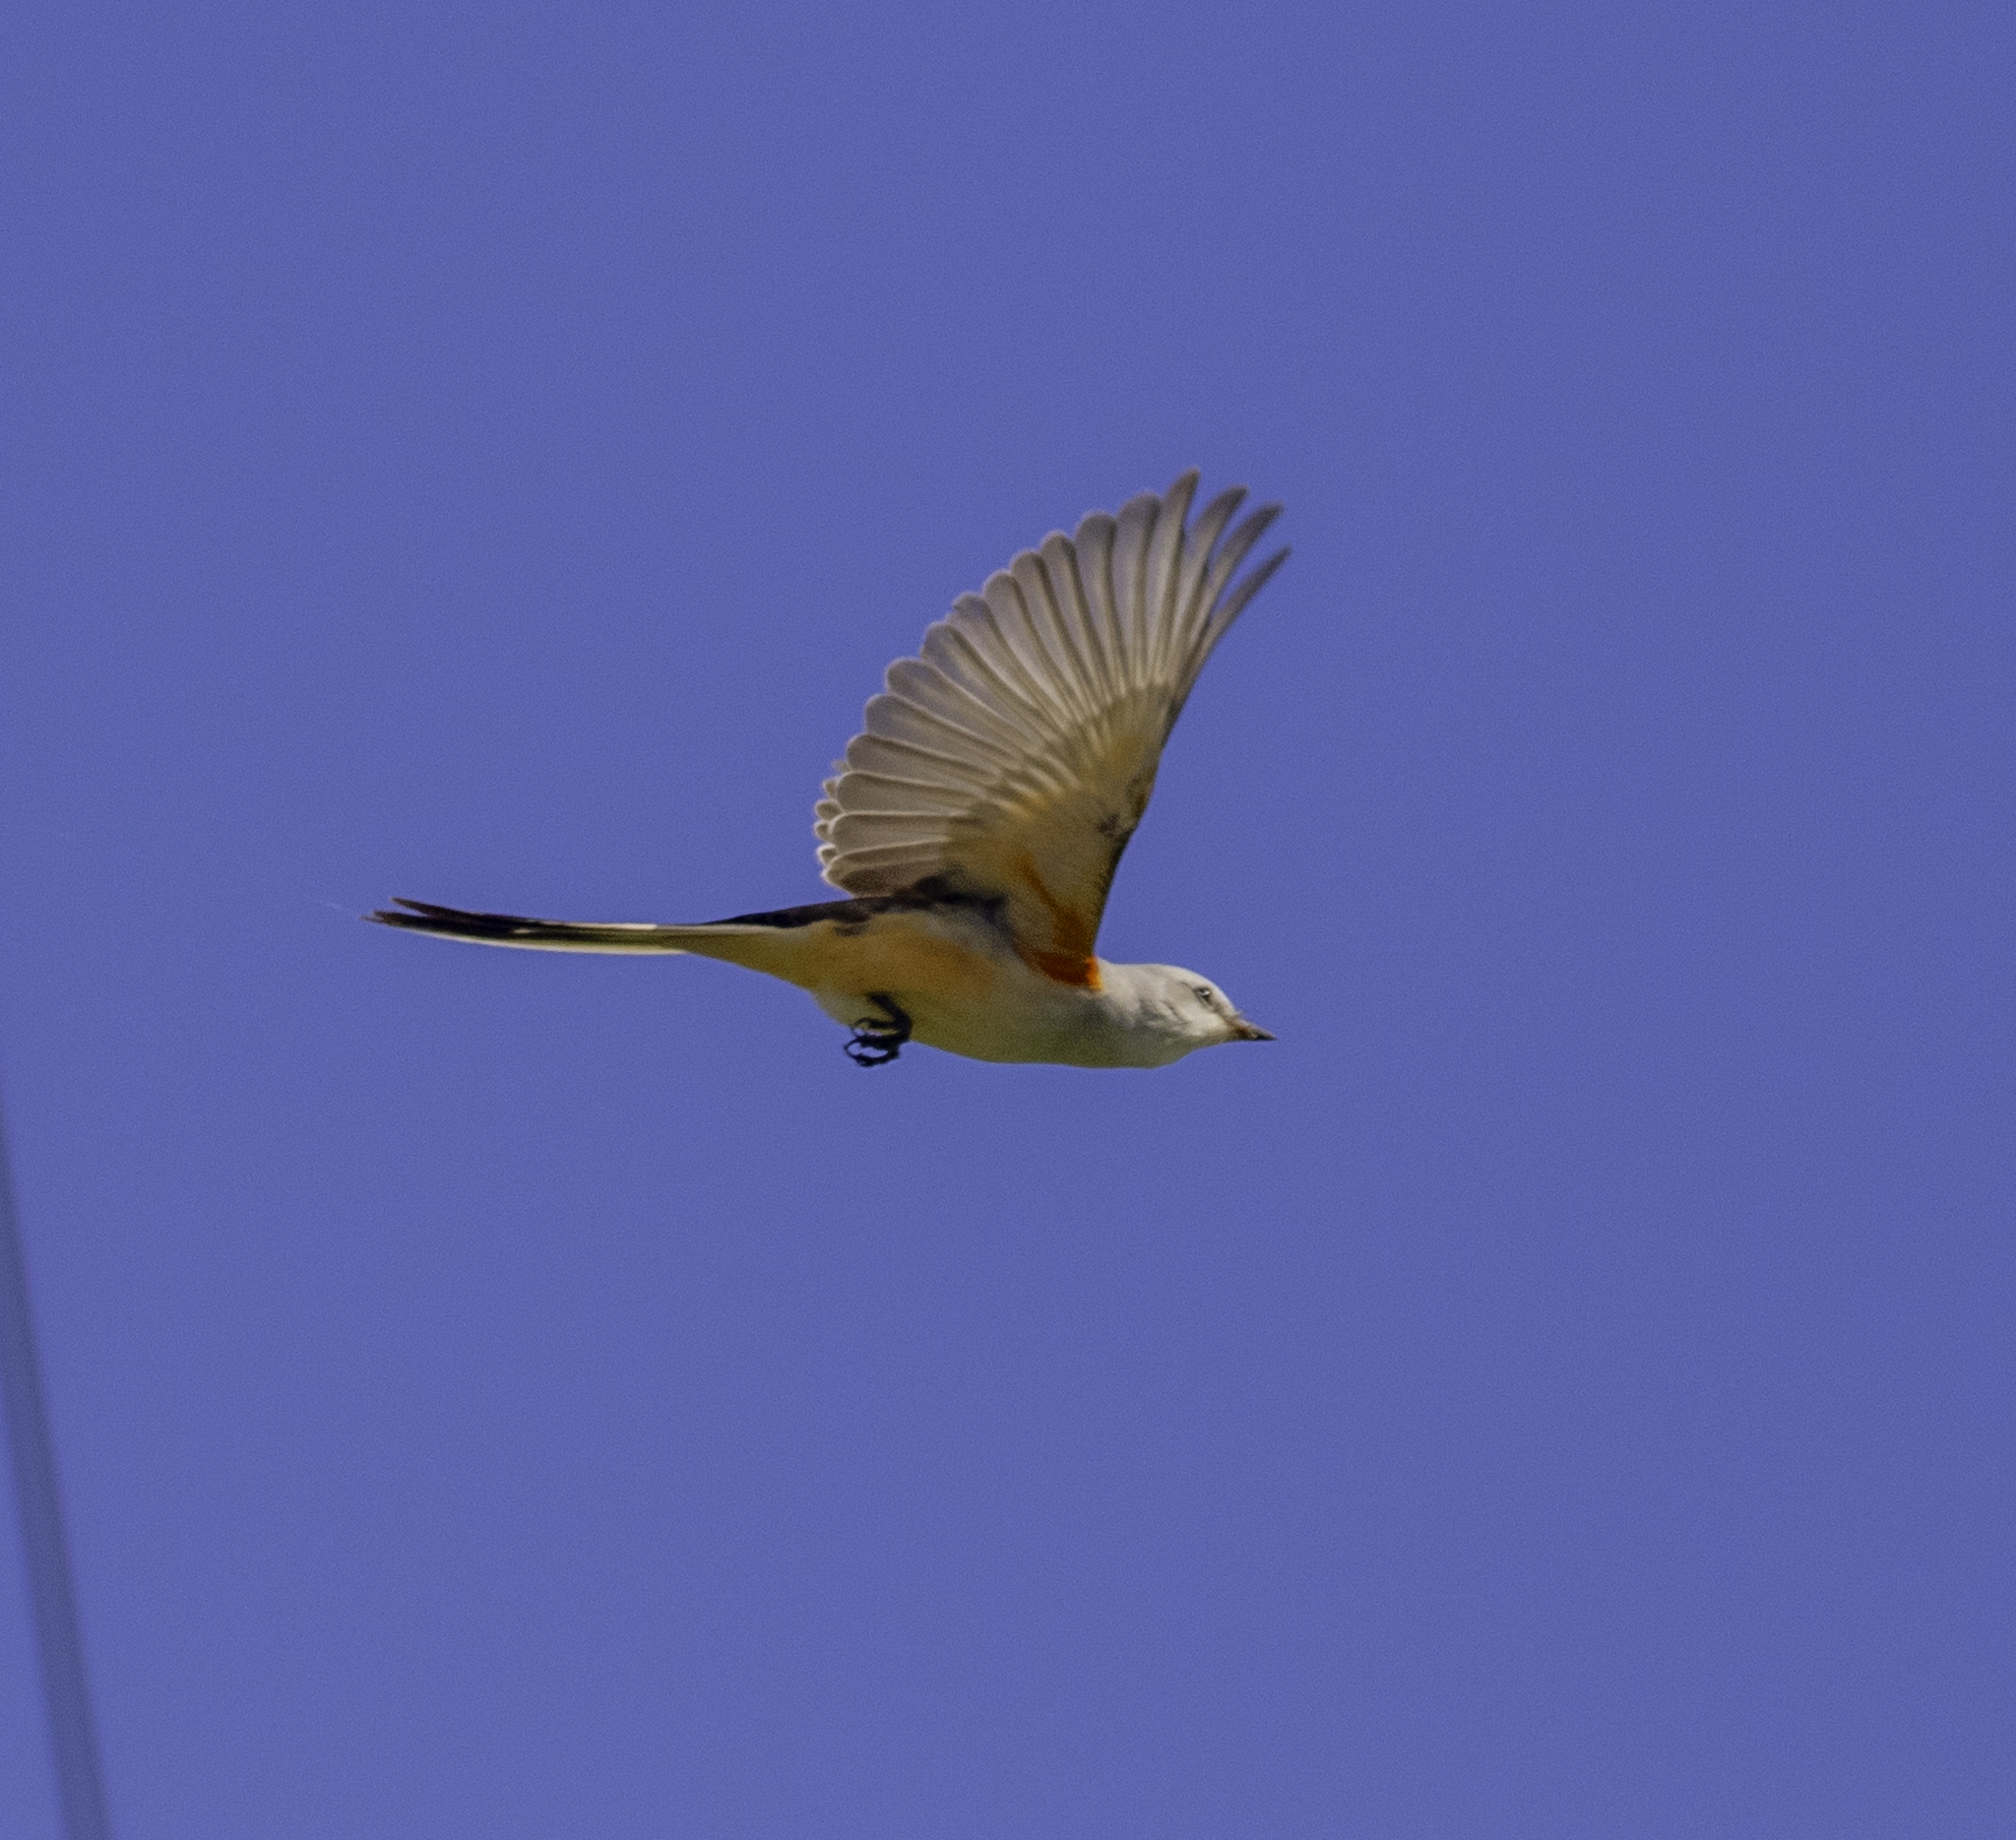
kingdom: Animalia
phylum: Chordata
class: Aves
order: Passeriformes
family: Tyrannidae
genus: Tyrannus
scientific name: Tyrannus forficatus
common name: Scissor-tailed flycatcher
